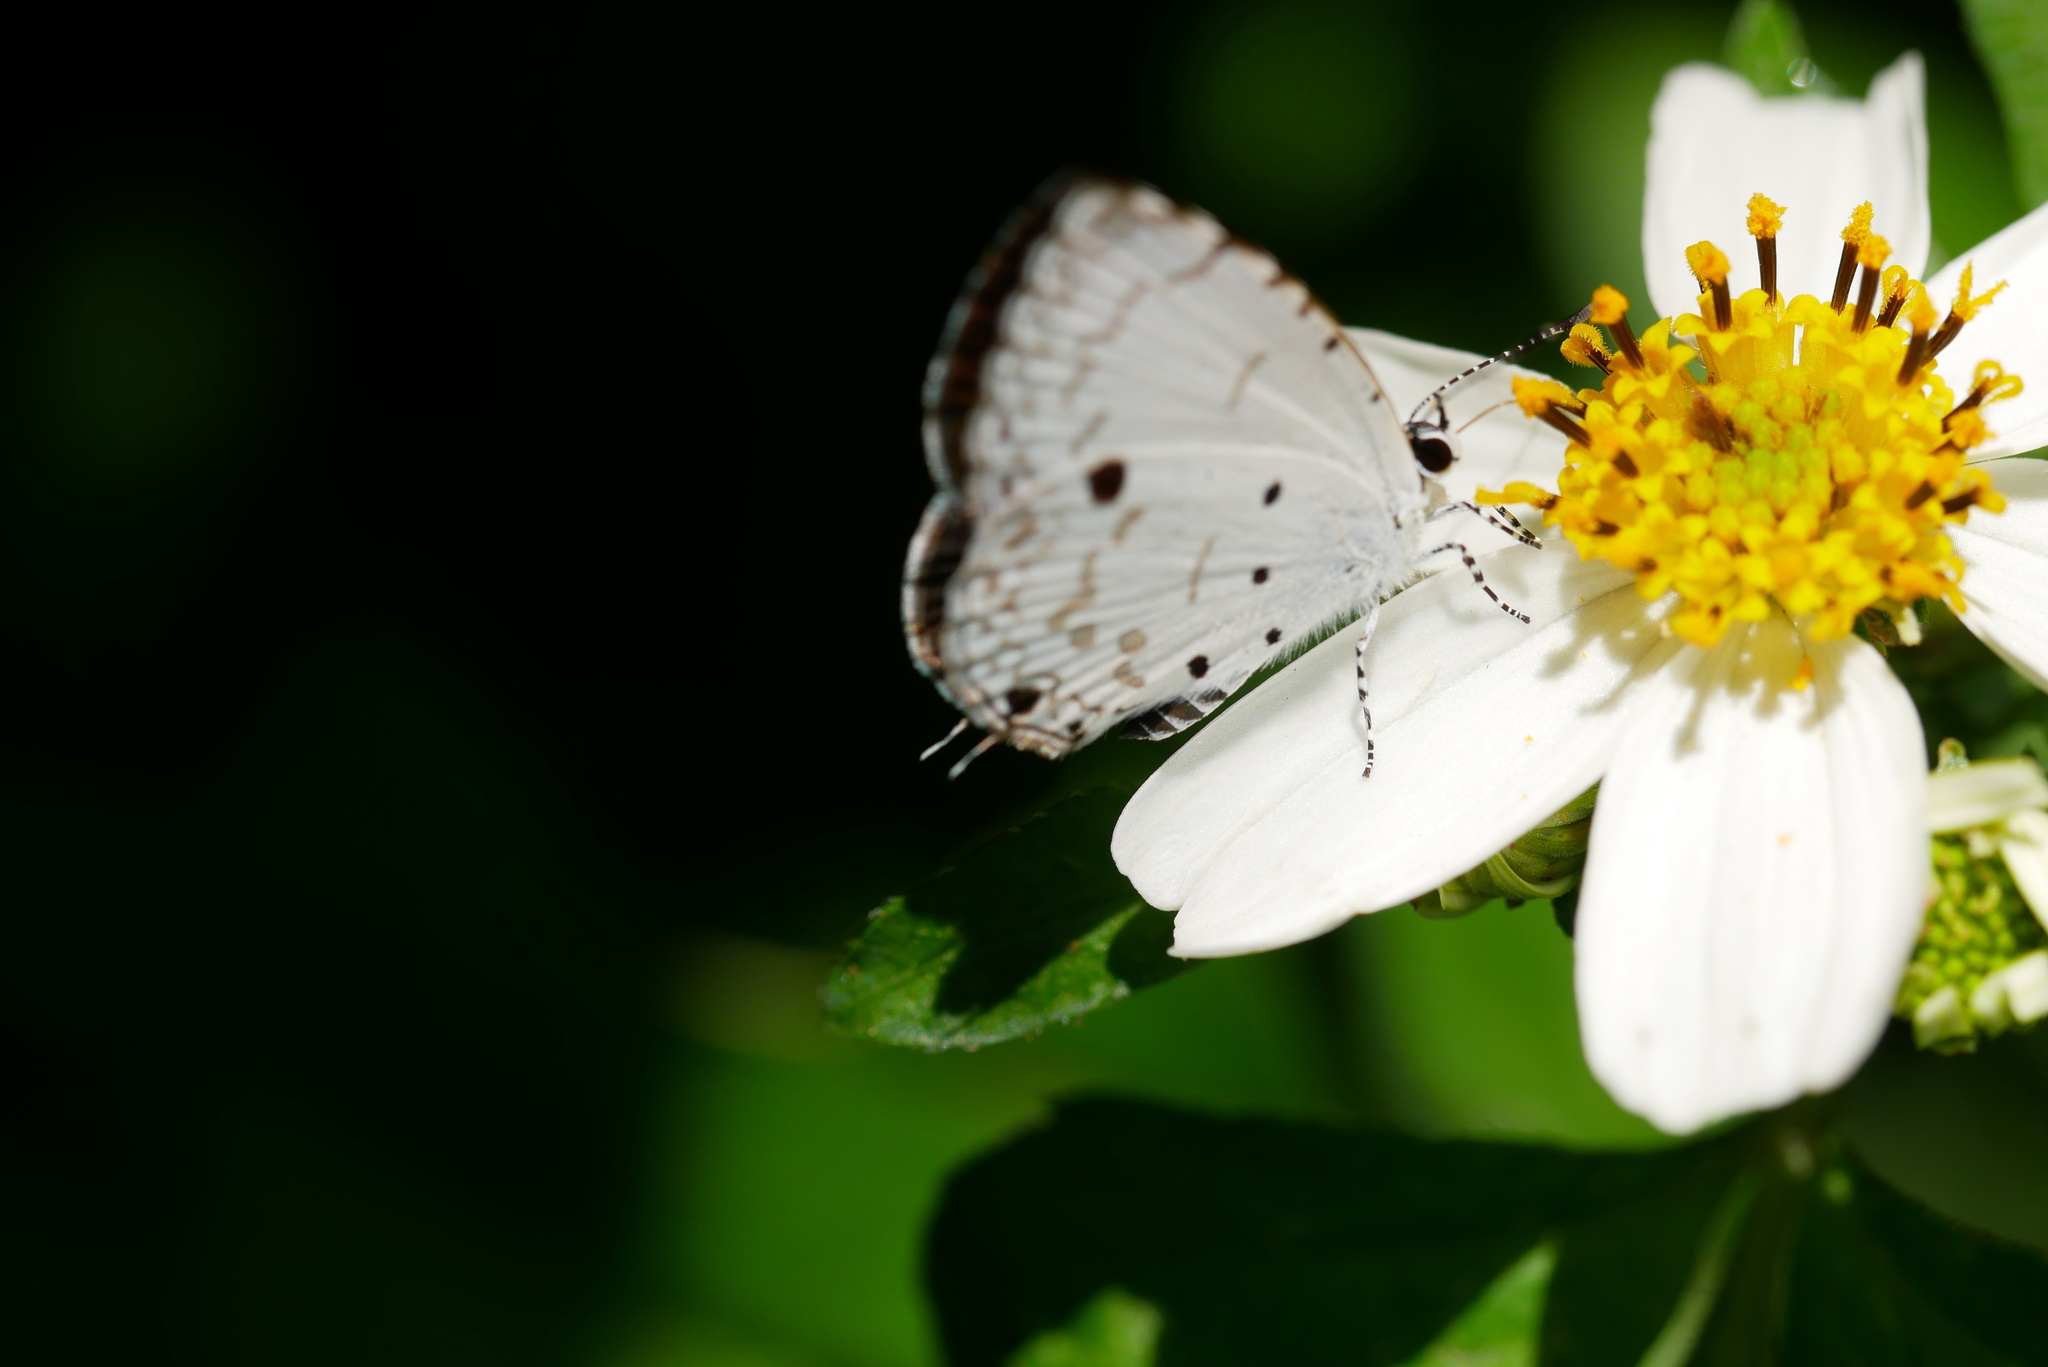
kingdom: Animalia
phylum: Arthropoda
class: Insecta
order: Lepidoptera
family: Lycaenidae
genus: Megisba
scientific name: Megisba malaya
